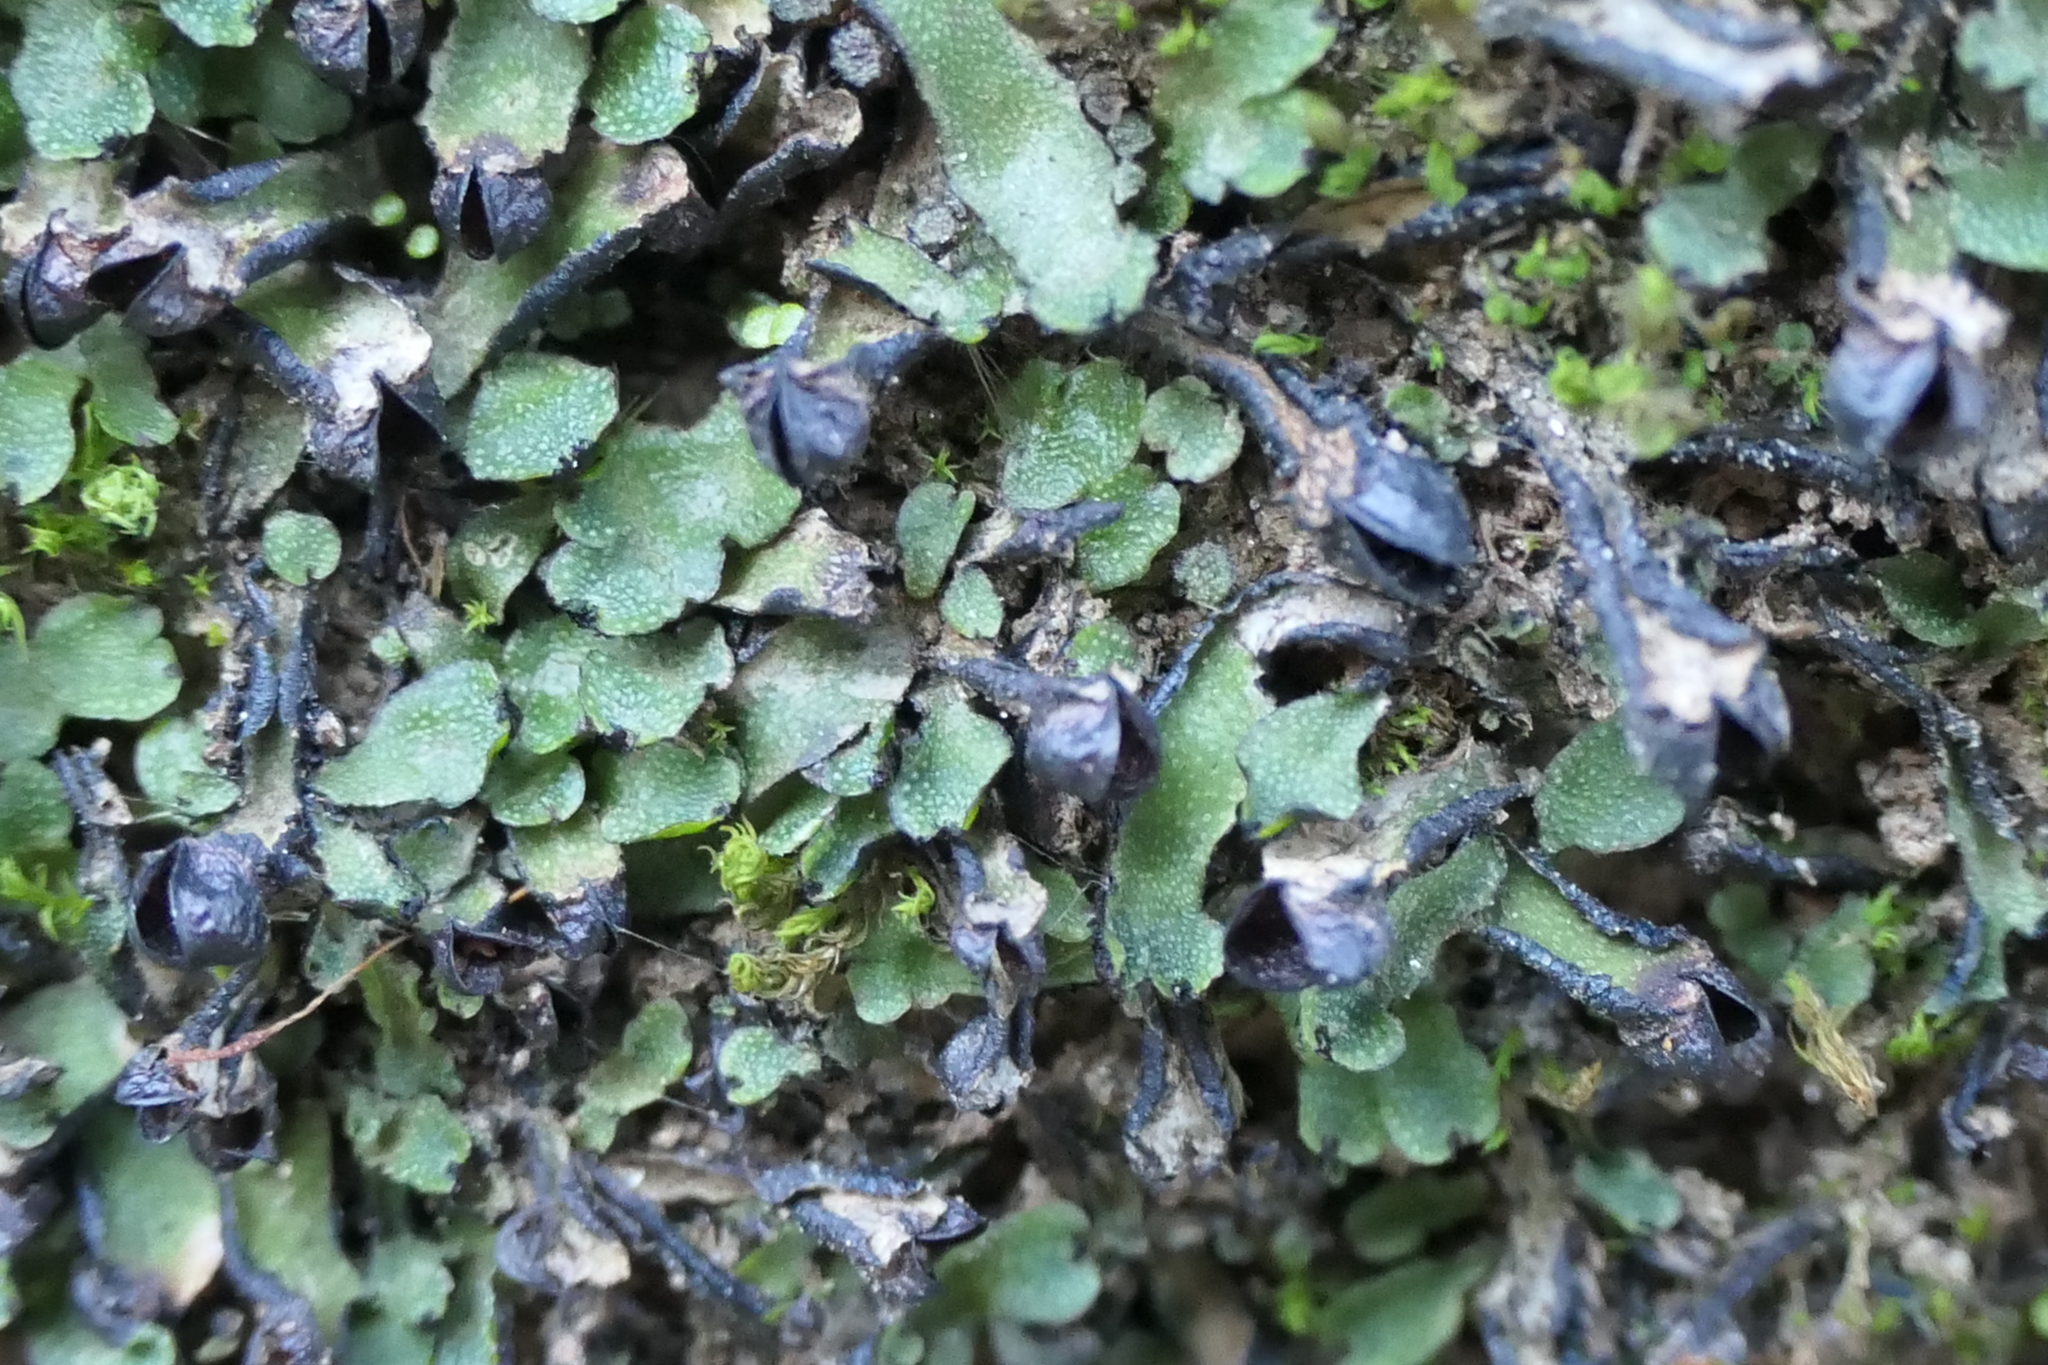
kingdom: Plantae
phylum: Marchantiophyta
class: Marchantiopsida
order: Marchantiales
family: Targioniaceae
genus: Targionia
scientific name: Targionia hypophylla
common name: Orobus-seed liverwort
